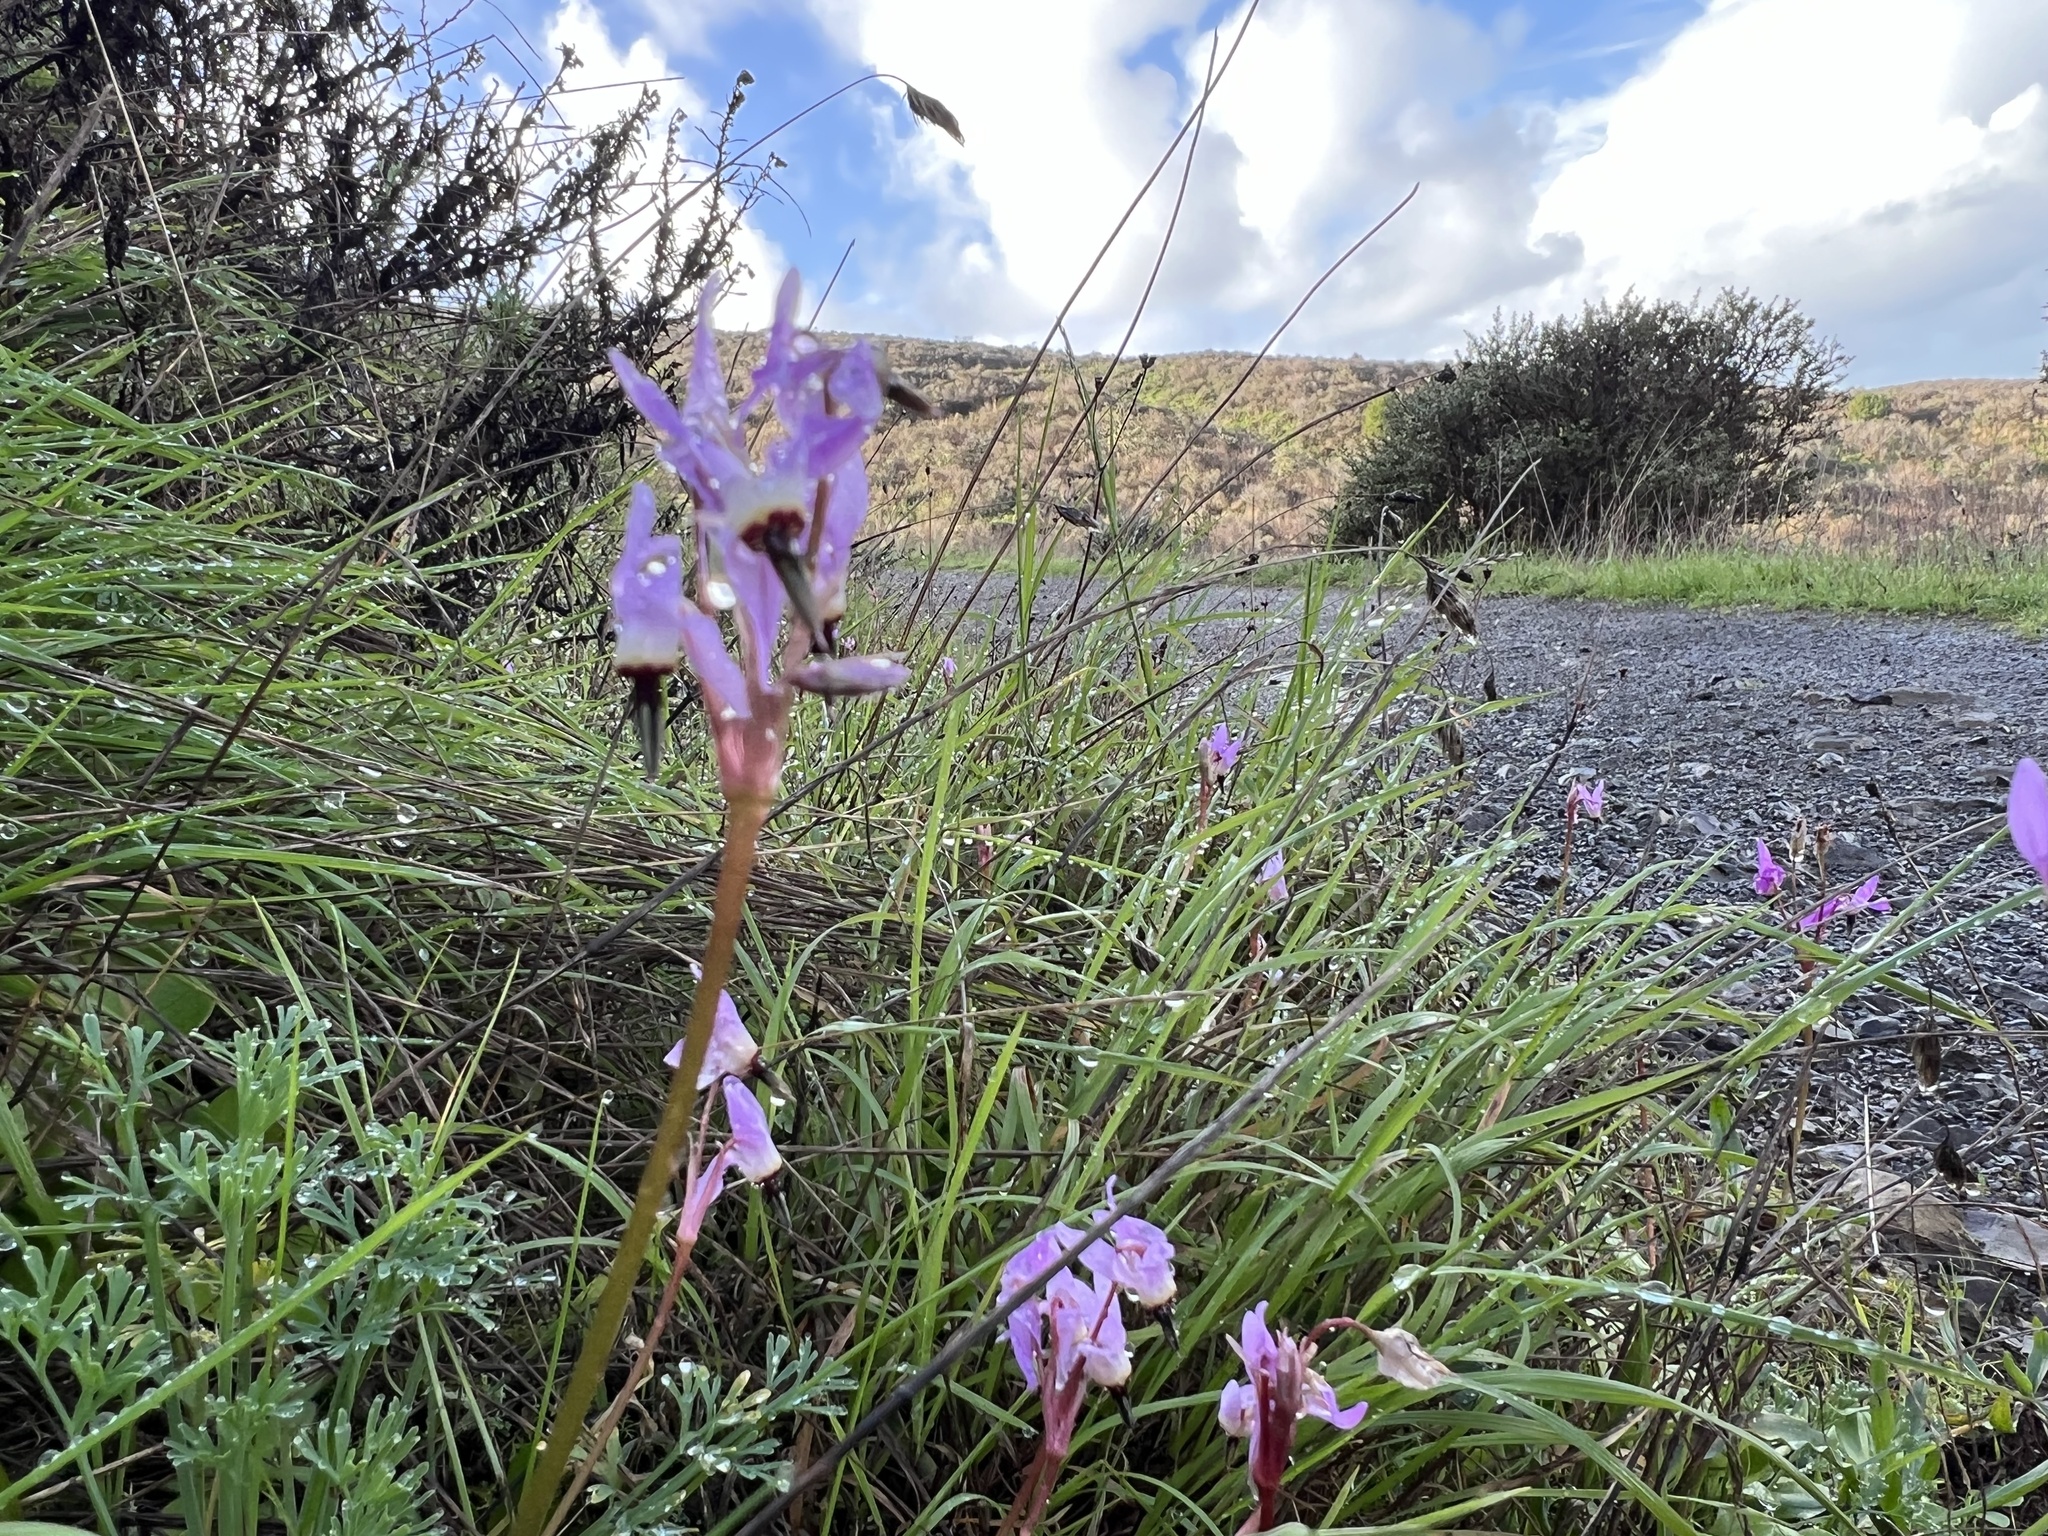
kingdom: Plantae
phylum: Tracheophyta
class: Magnoliopsida
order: Ericales
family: Primulaceae
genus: Dodecatheon
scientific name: Dodecatheon hendersonii
